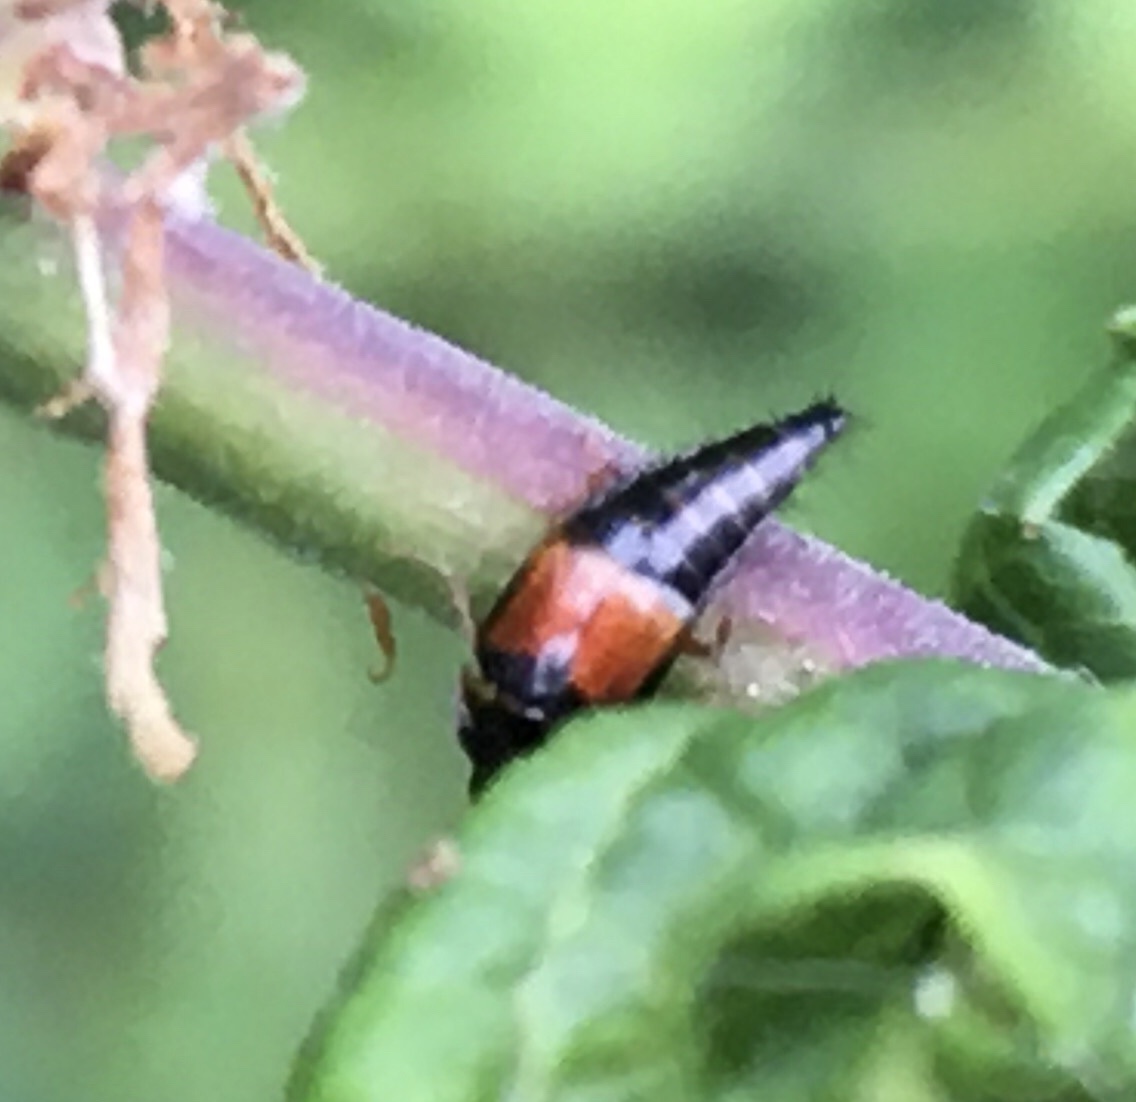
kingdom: Animalia
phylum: Arthropoda
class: Insecta
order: Coleoptera
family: Staphylinidae
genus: Tachyporus
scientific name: Tachyporus hypnorum
